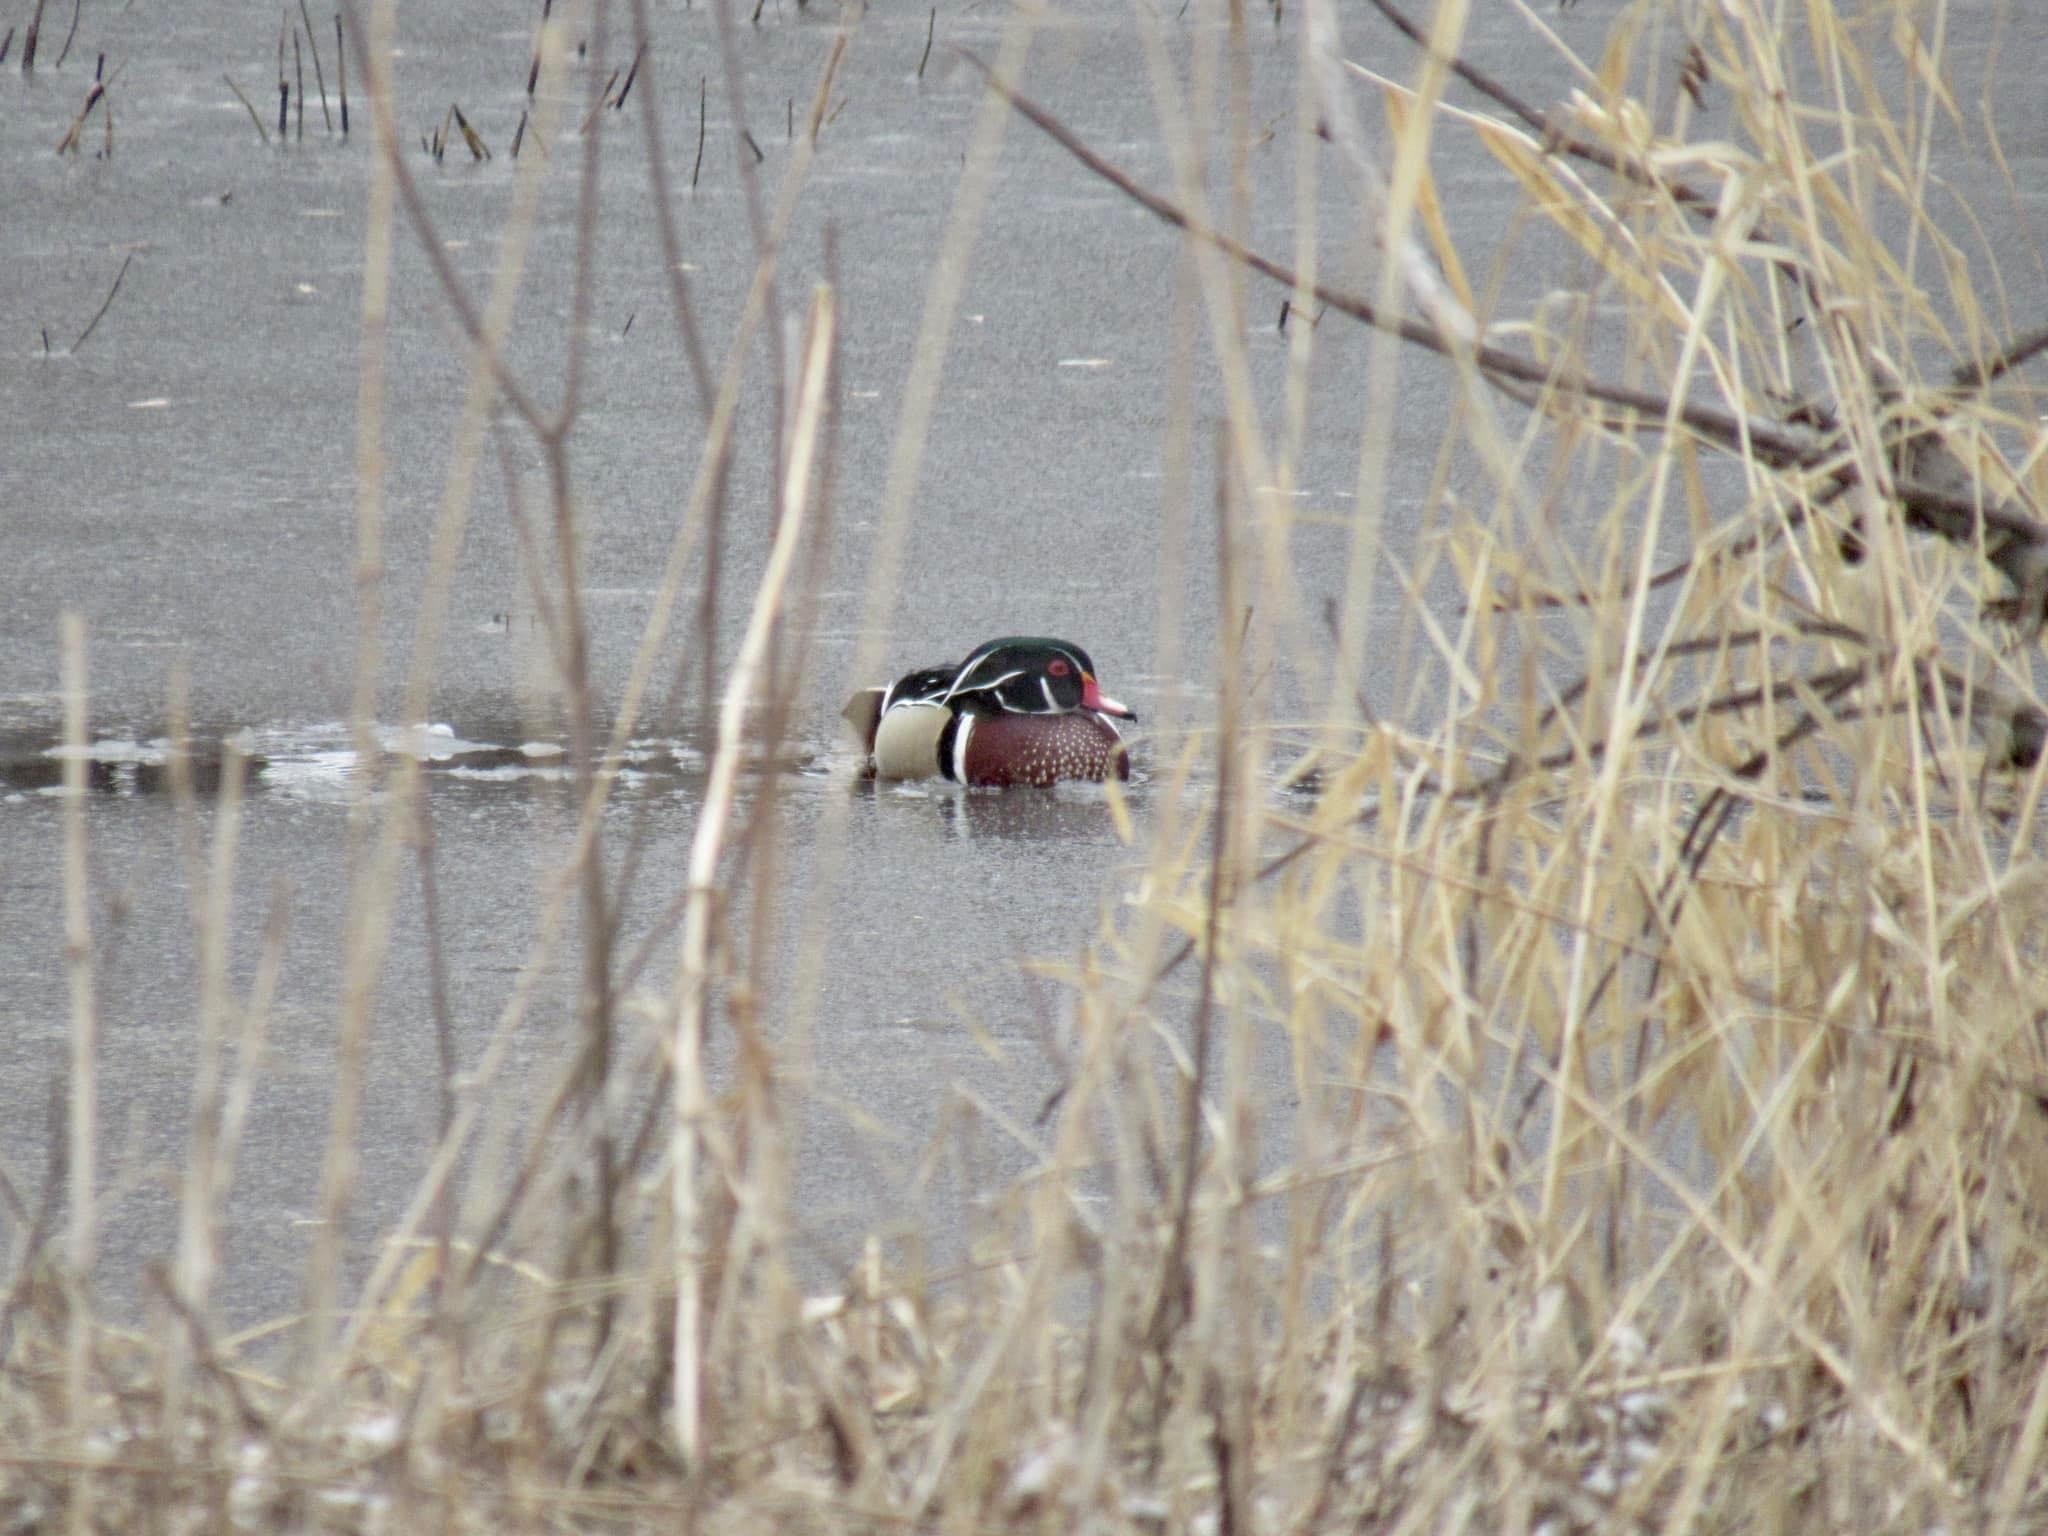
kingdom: Animalia
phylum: Chordata
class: Aves
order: Anseriformes
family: Anatidae
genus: Aix
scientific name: Aix sponsa
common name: Wood duck
